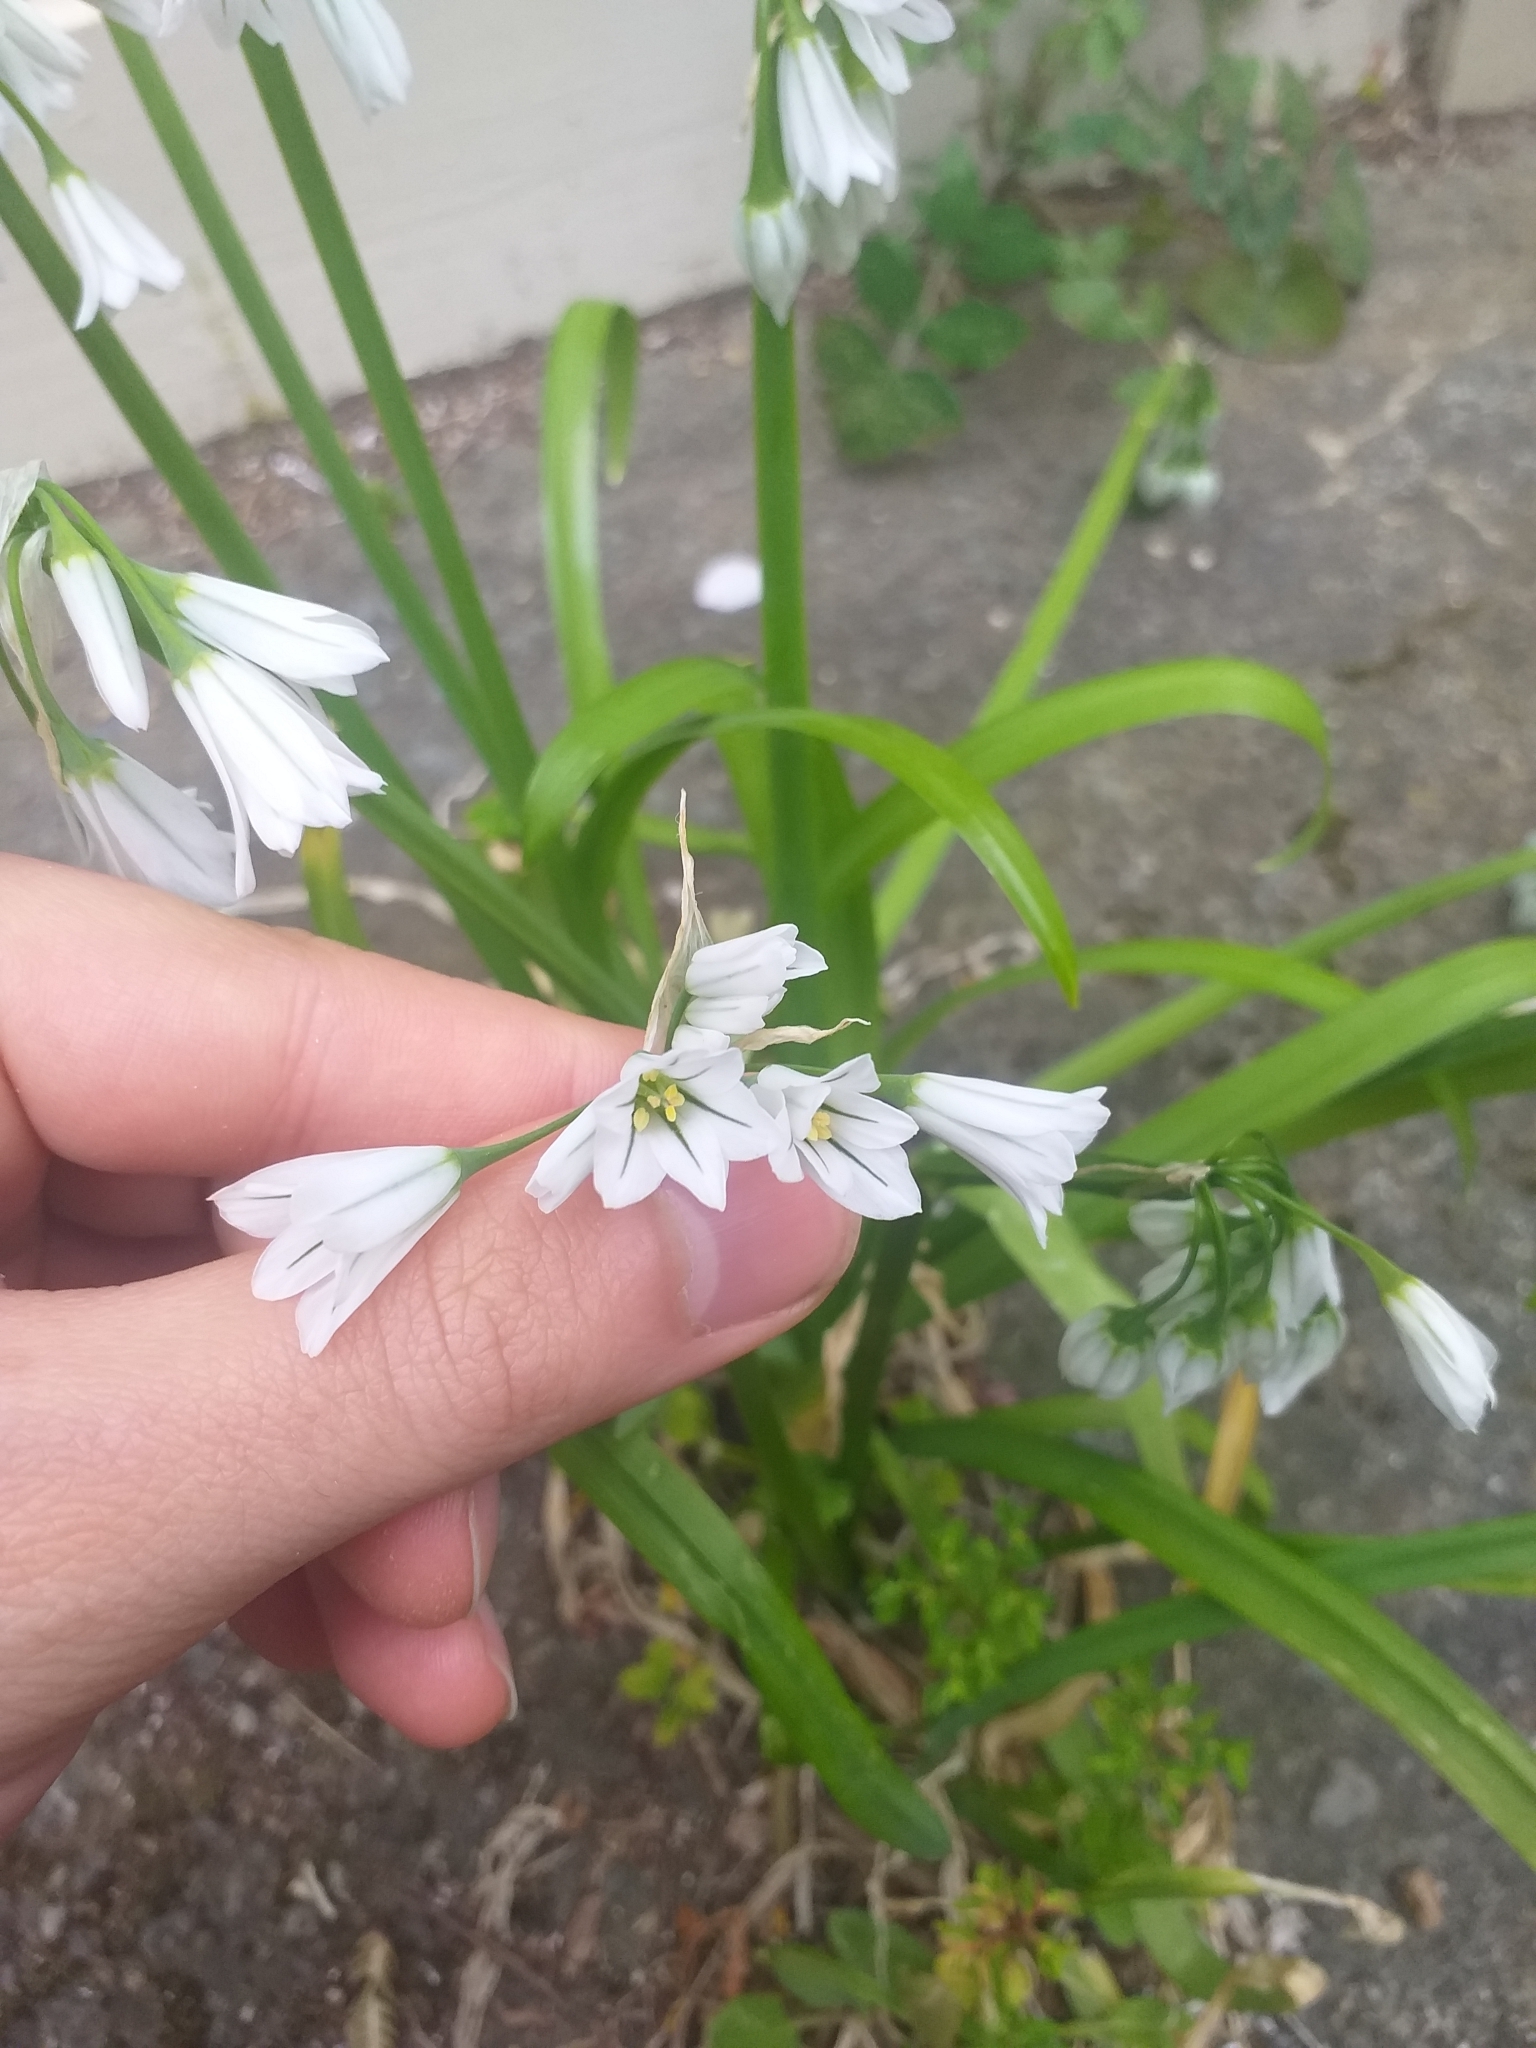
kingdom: Plantae
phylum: Tracheophyta
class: Liliopsida
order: Asparagales
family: Amaryllidaceae
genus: Allium
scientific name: Allium triquetrum
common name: Three-cornered garlic
